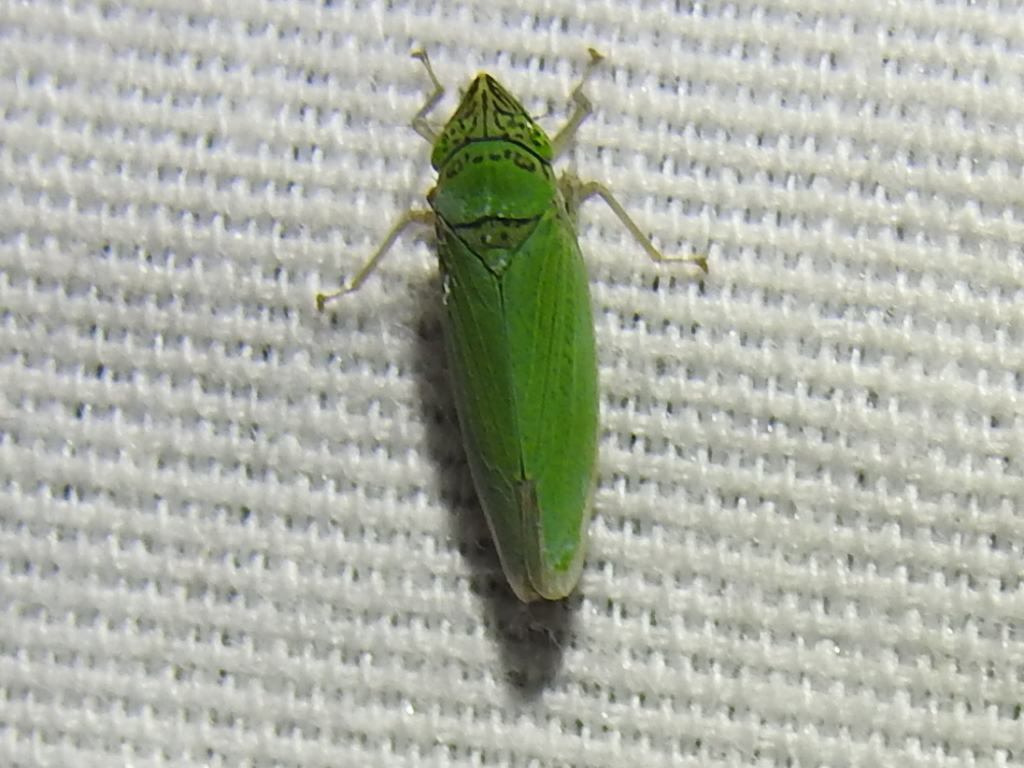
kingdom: Animalia
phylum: Arthropoda
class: Insecta
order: Hemiptera
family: Cicadellidae
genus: Draeculacephala
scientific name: Draeculacephala inscripta
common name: Leafhopper
